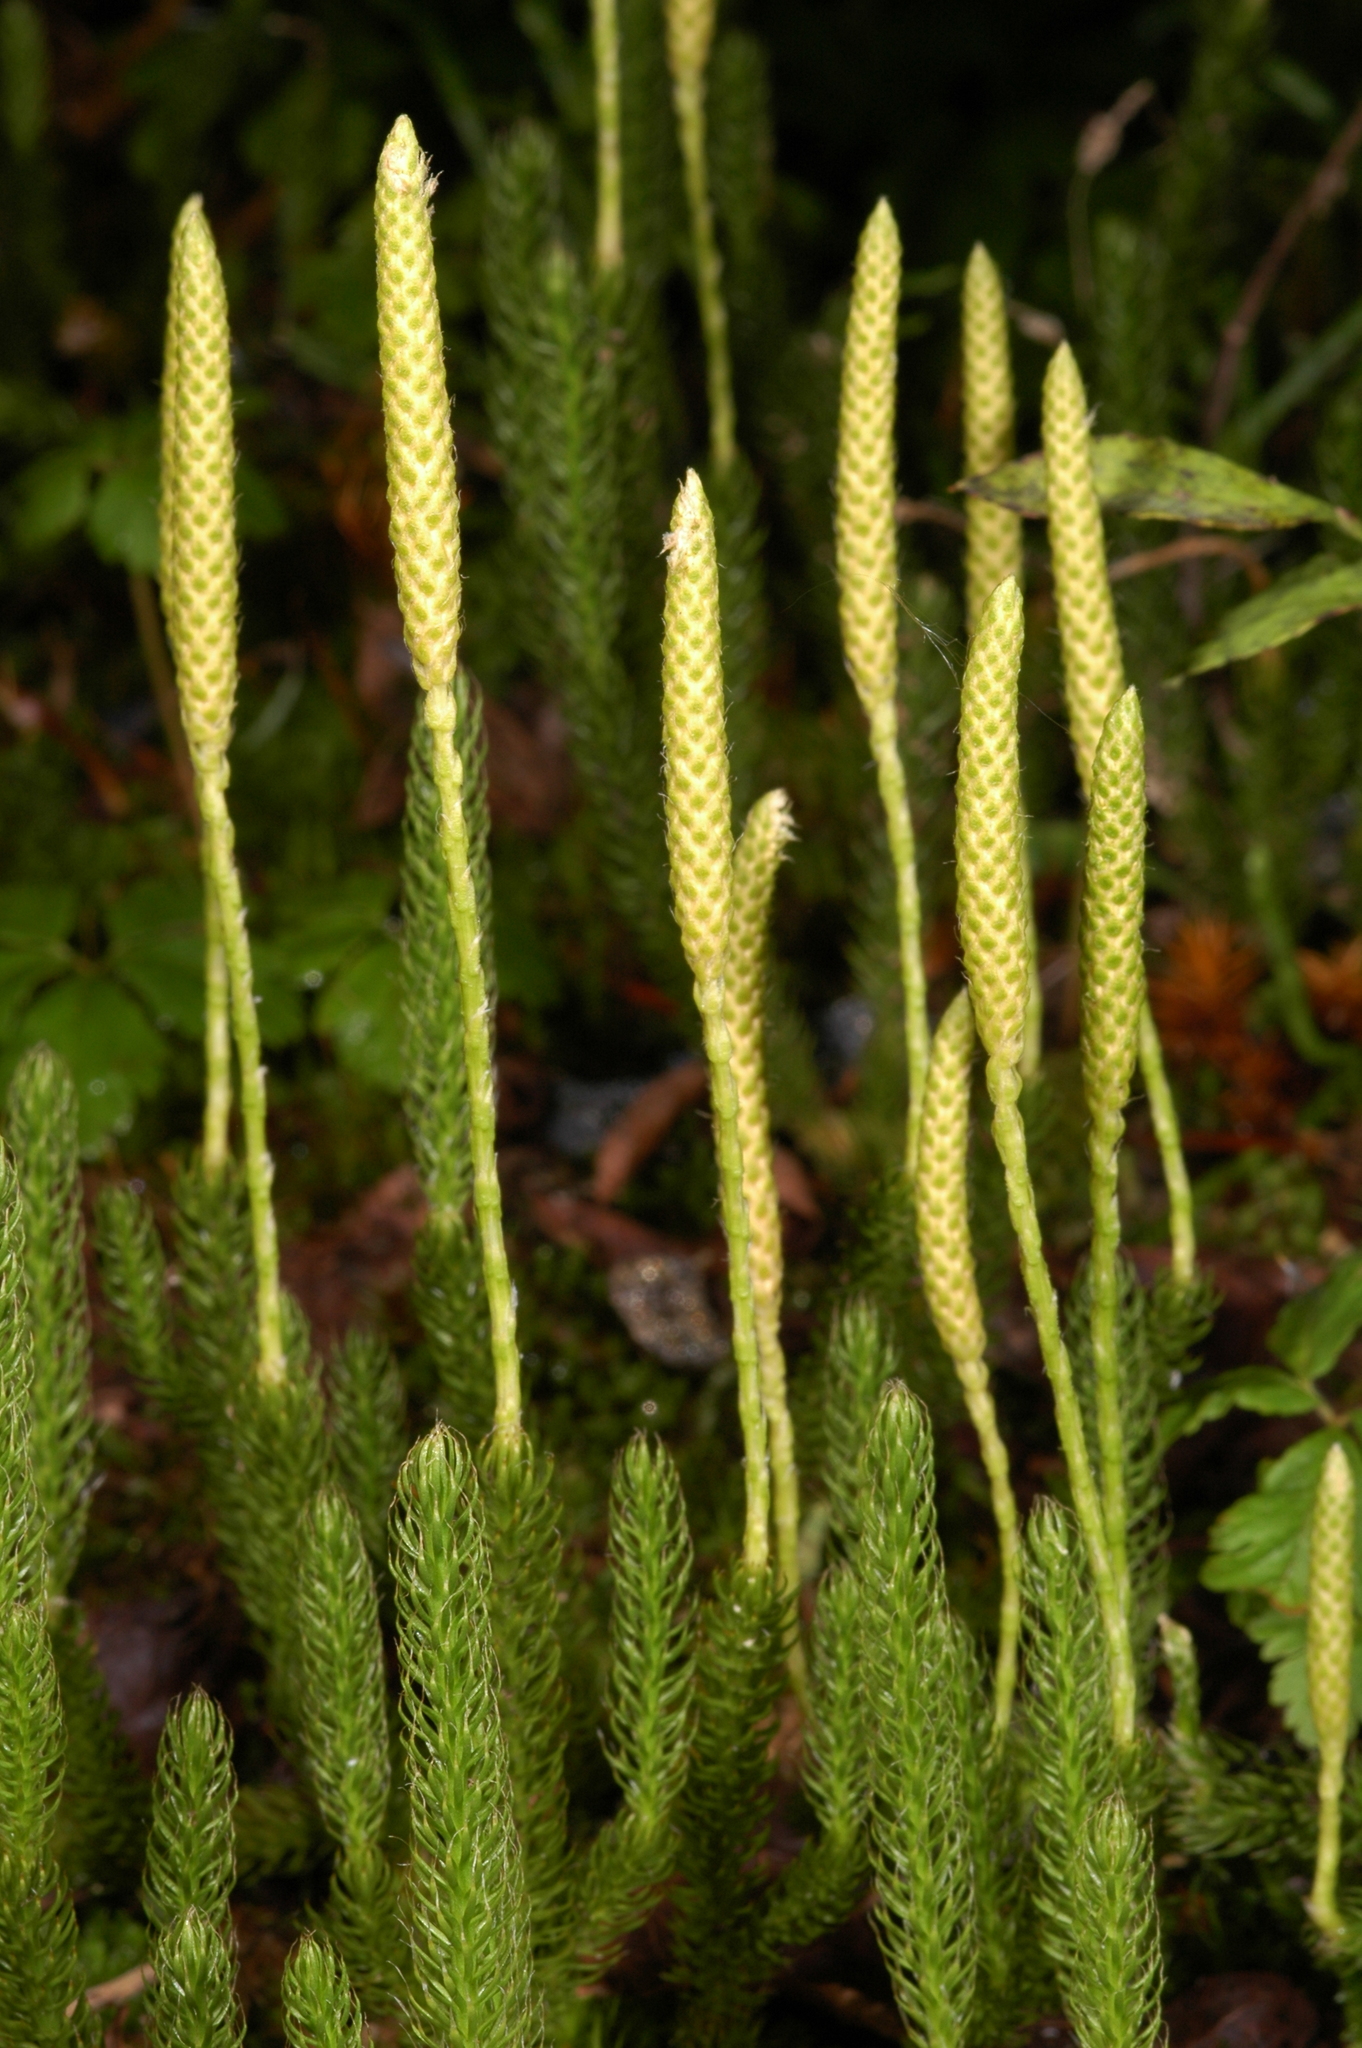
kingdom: Plantae
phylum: Tracheophyta
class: Lycopodiopsida
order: Lycopodiales
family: Lycopodiaceae
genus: Lycopodium
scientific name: Lycopodium lagopus
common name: One-cone clubmoss
